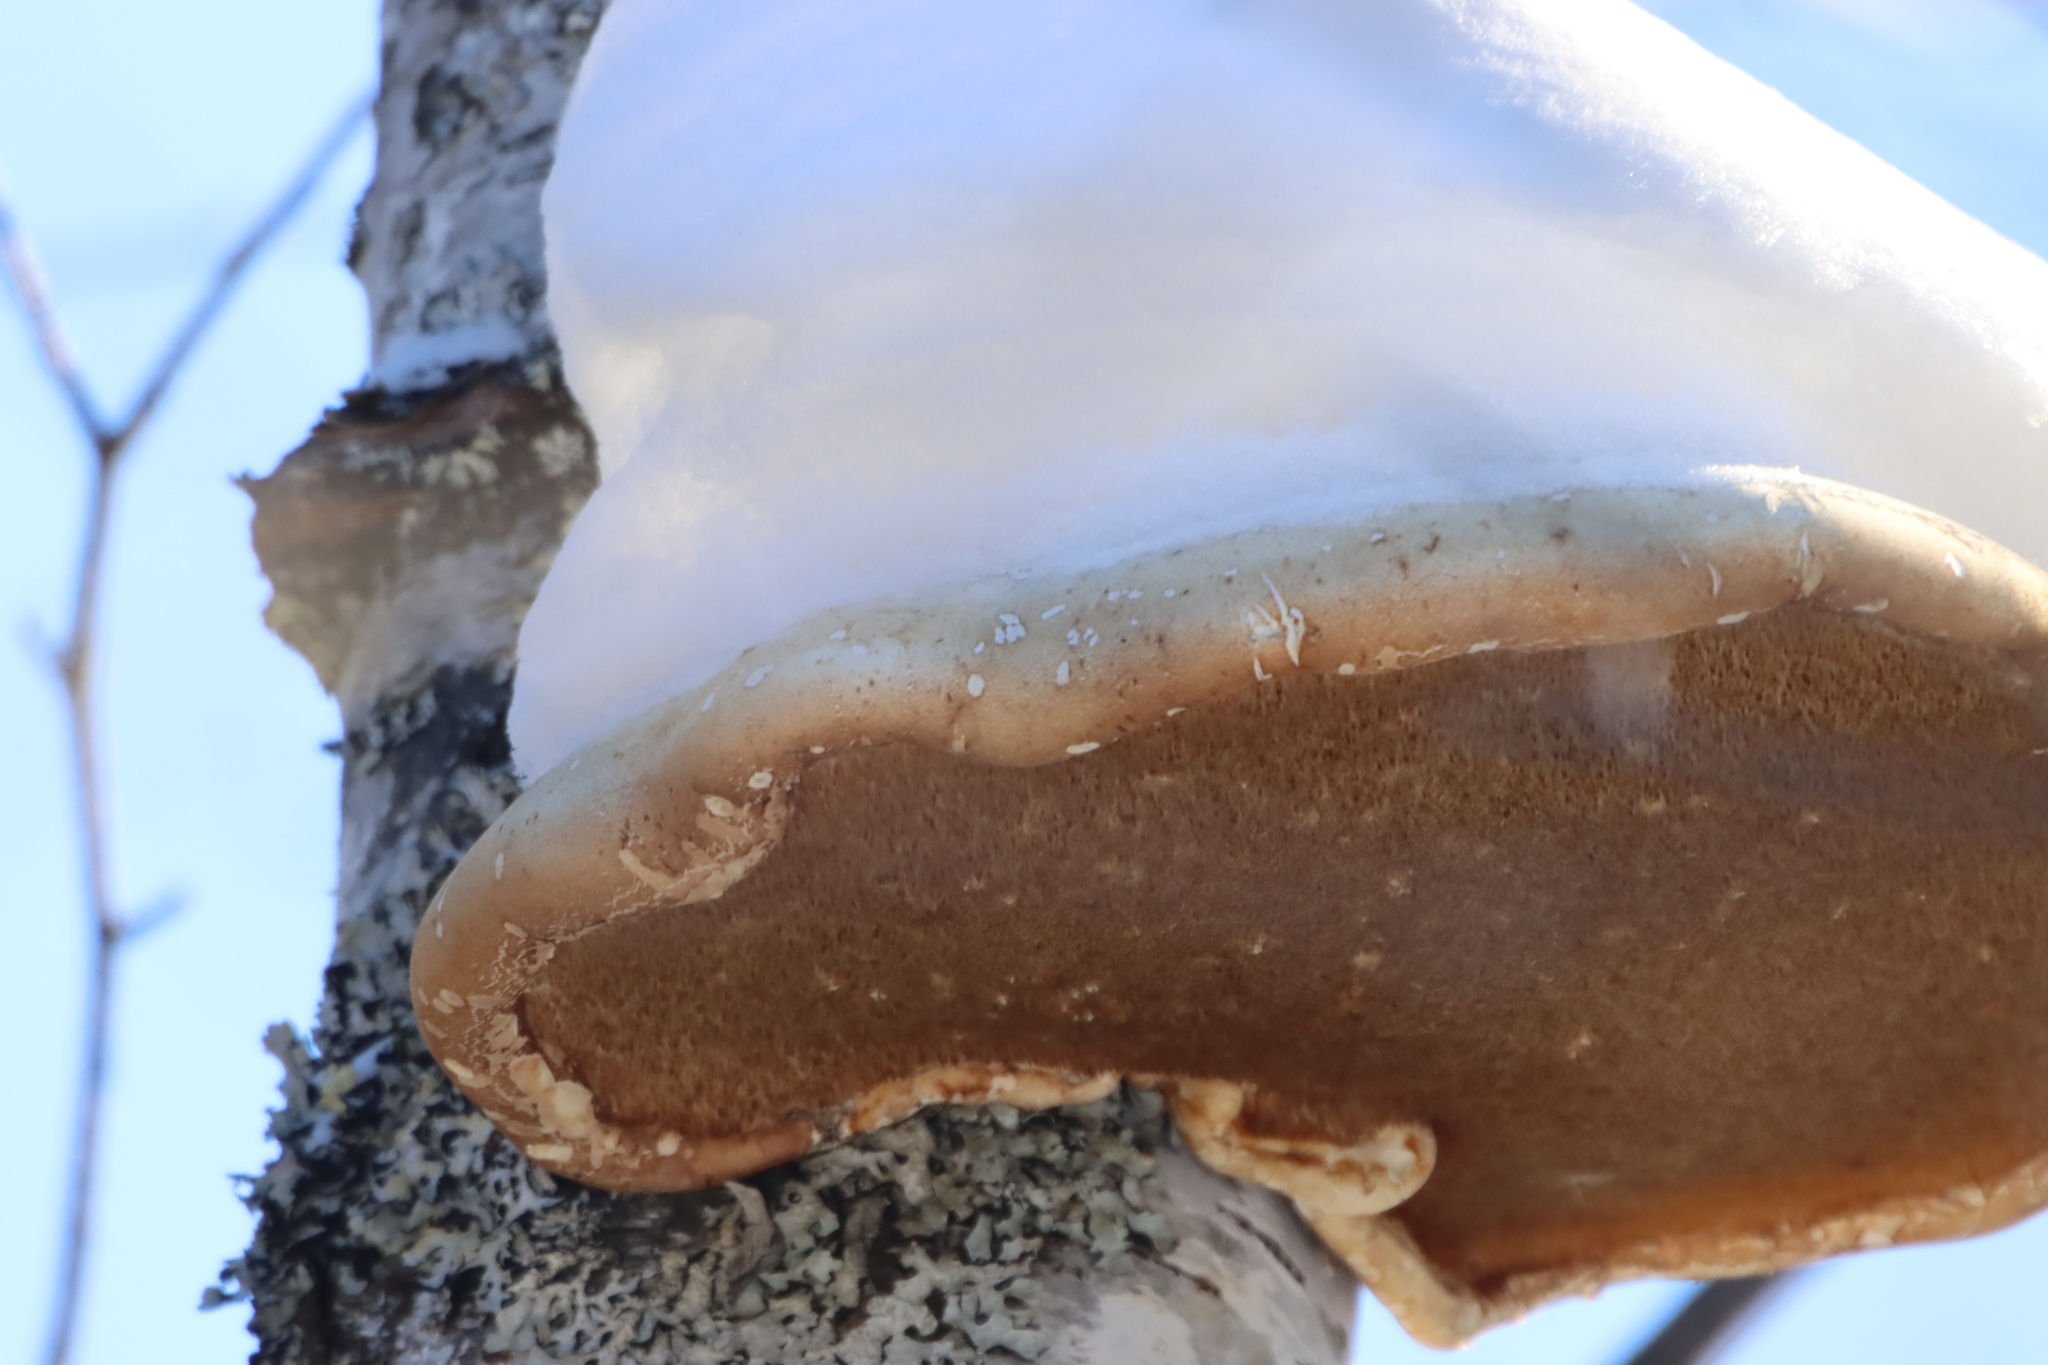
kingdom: Fungi
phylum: Basidiomycota
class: Agaricomycetes
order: Polyporales
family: Fomitopsidaceae
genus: Fomitopsis
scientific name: Fomitopsis betulina
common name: Birch polypore
